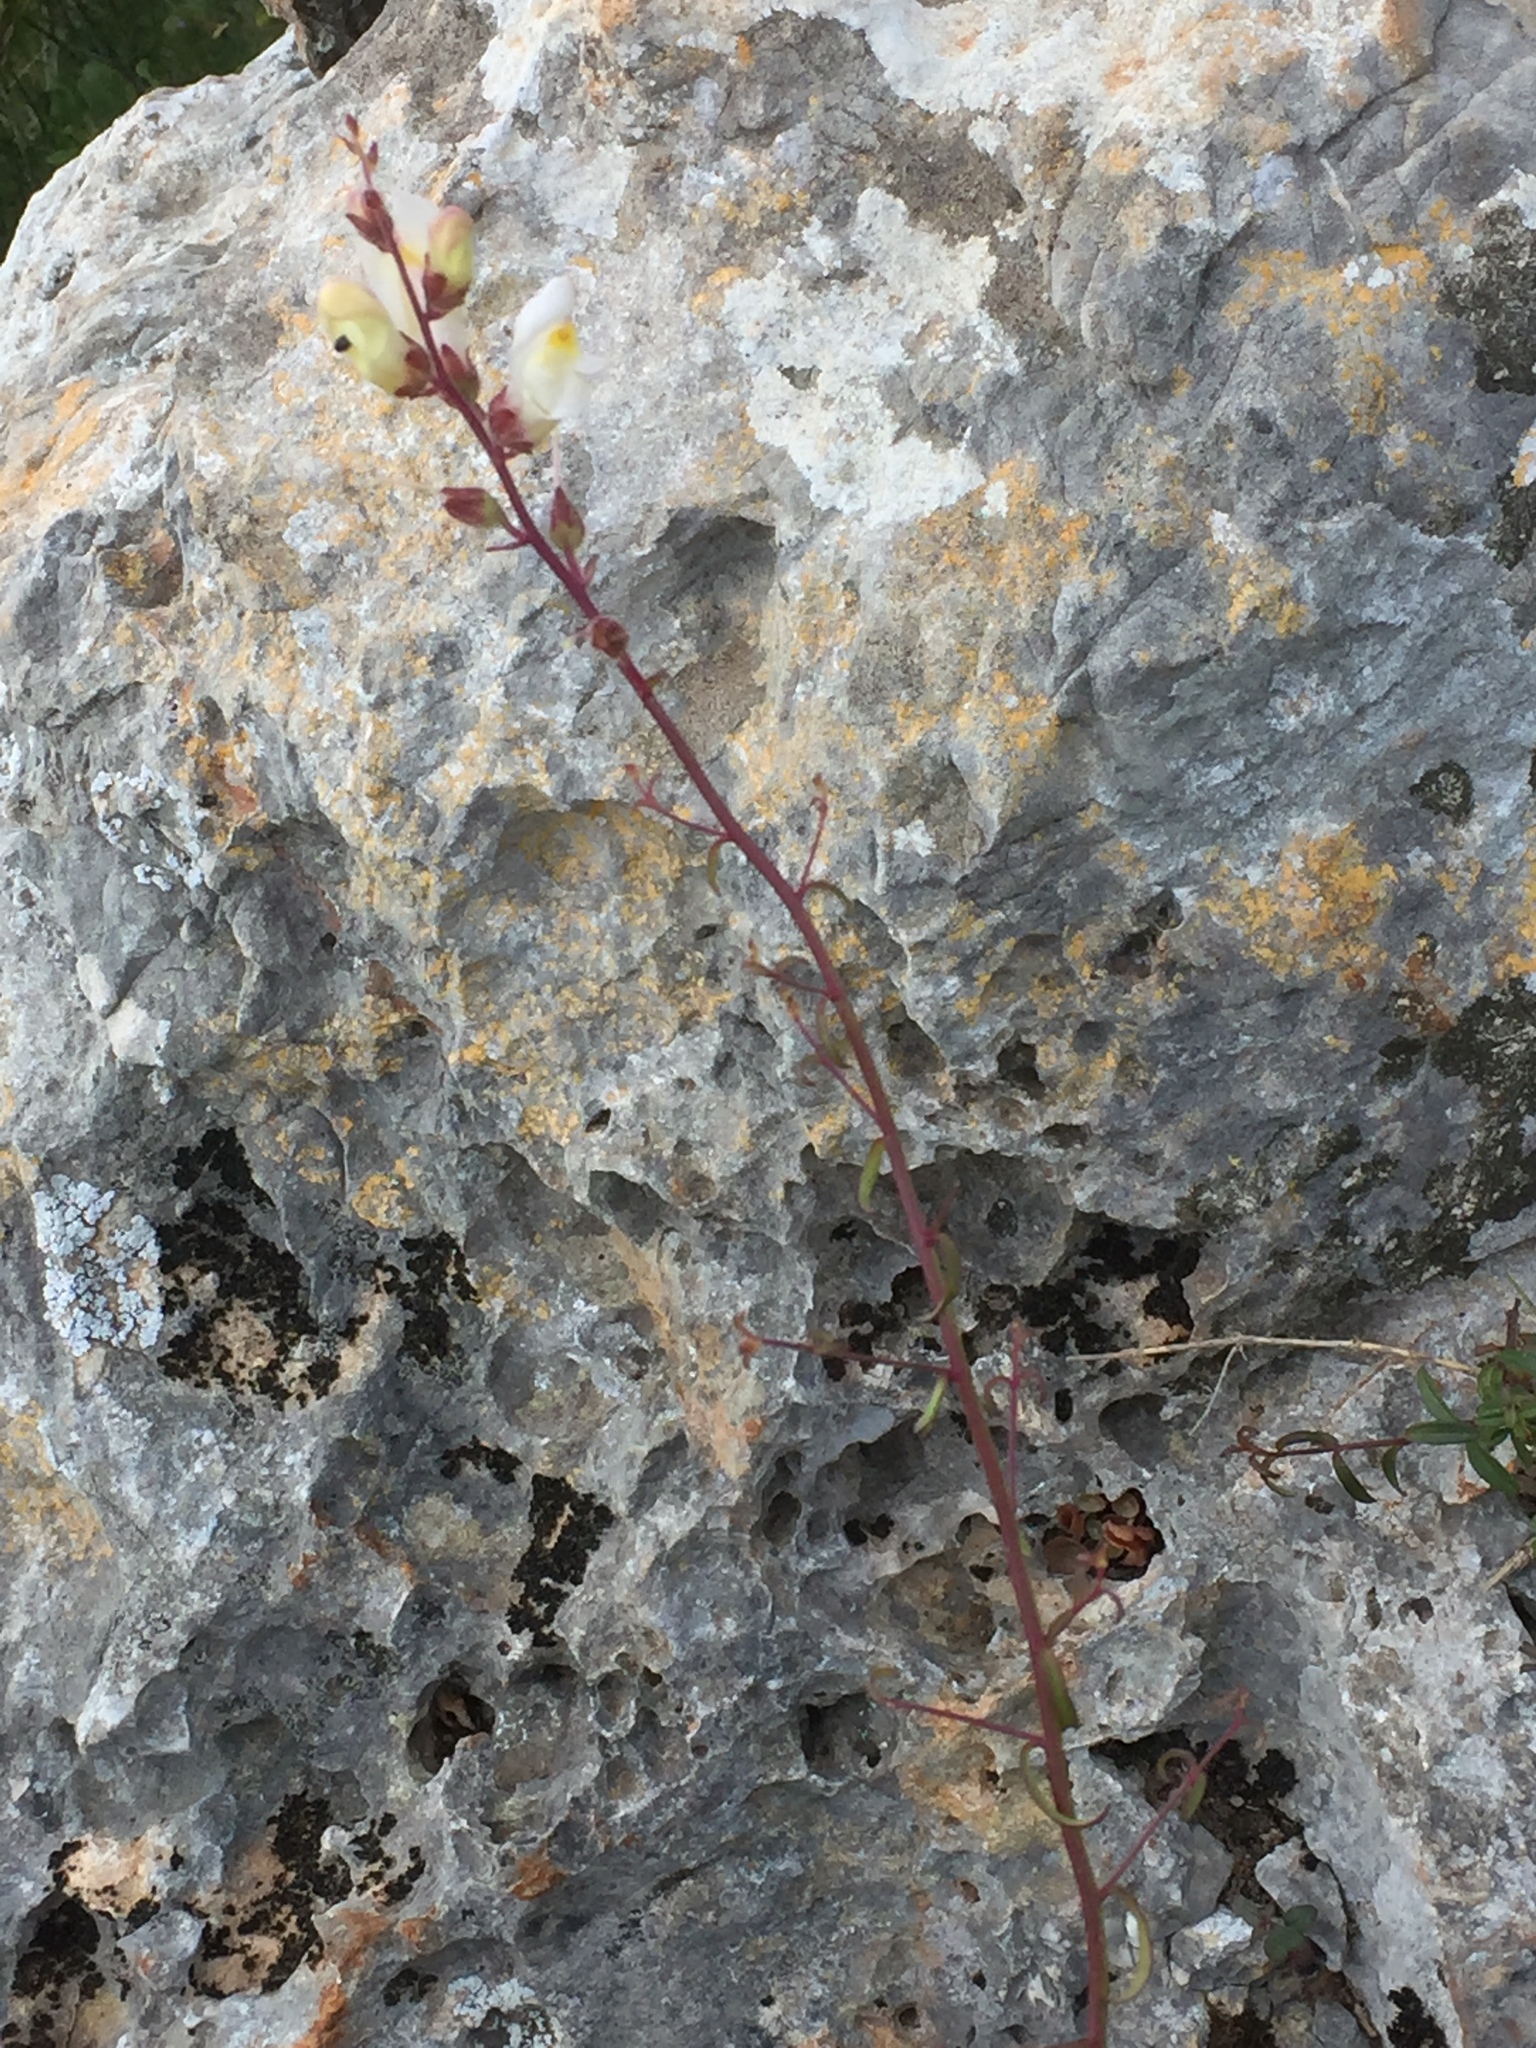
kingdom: Plantae
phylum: Tracheophyta
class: Magnoliopsida
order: Lamiales
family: Plantaginaceae
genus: Antirrhinum
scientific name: Antirrhinum onubense
